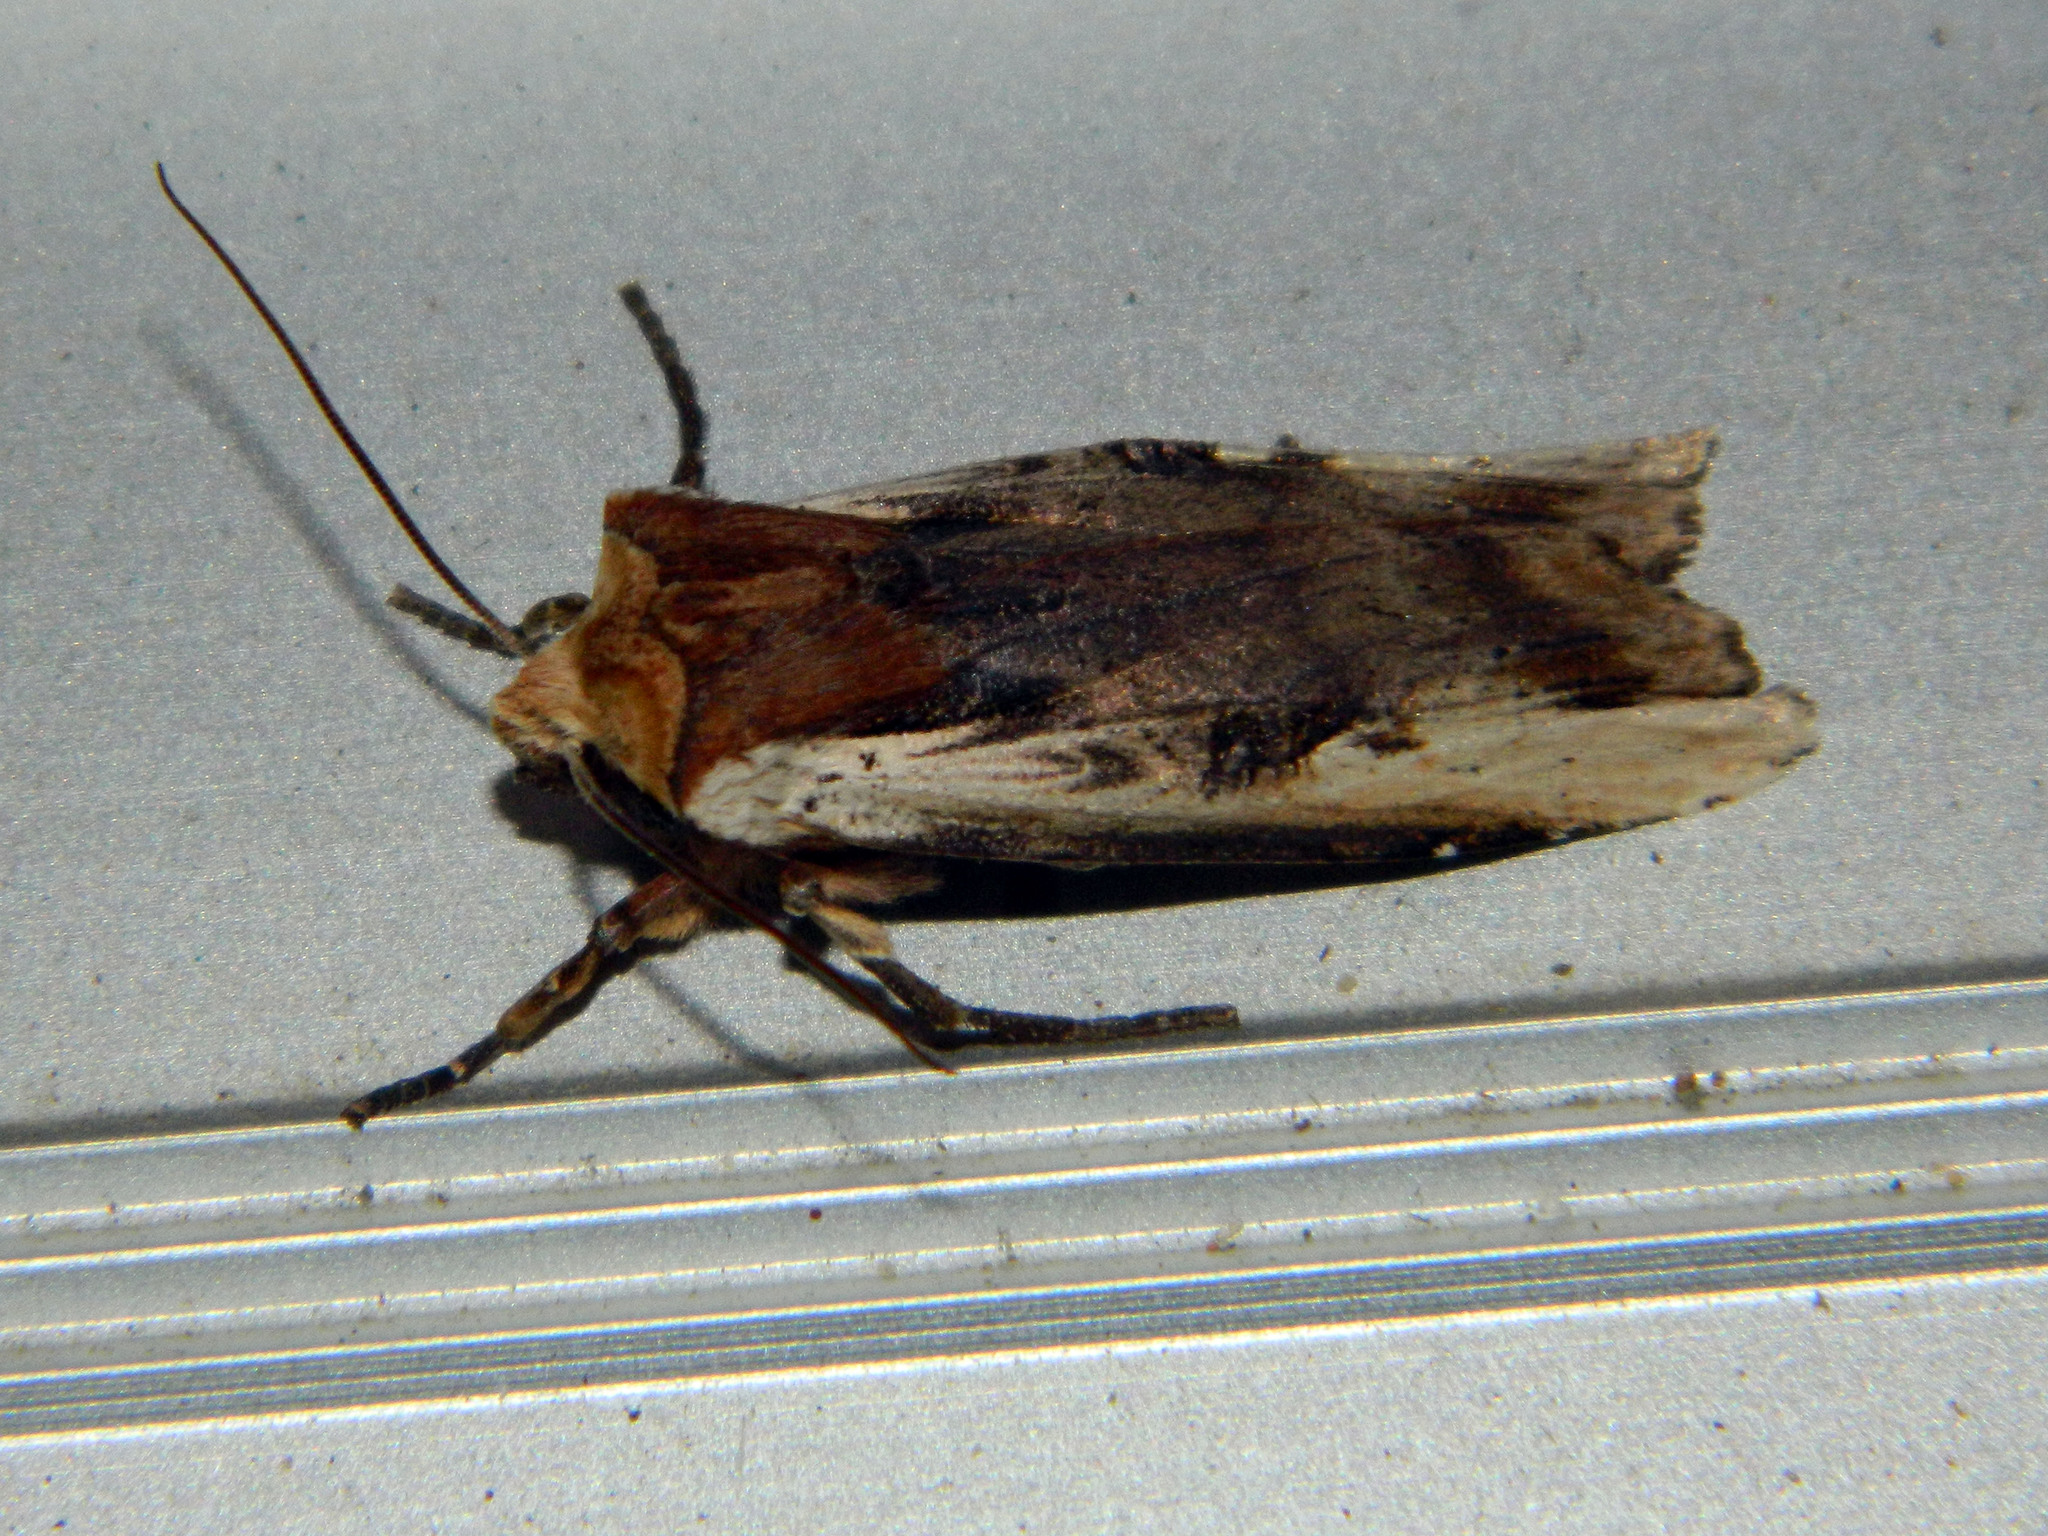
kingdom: Animalia
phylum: Arthropoda
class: Insecta
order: Lepidoptera
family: Noctuidae
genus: Xylena
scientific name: Xylena curvimacula
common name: Dot-and-dash swordgrass moth
